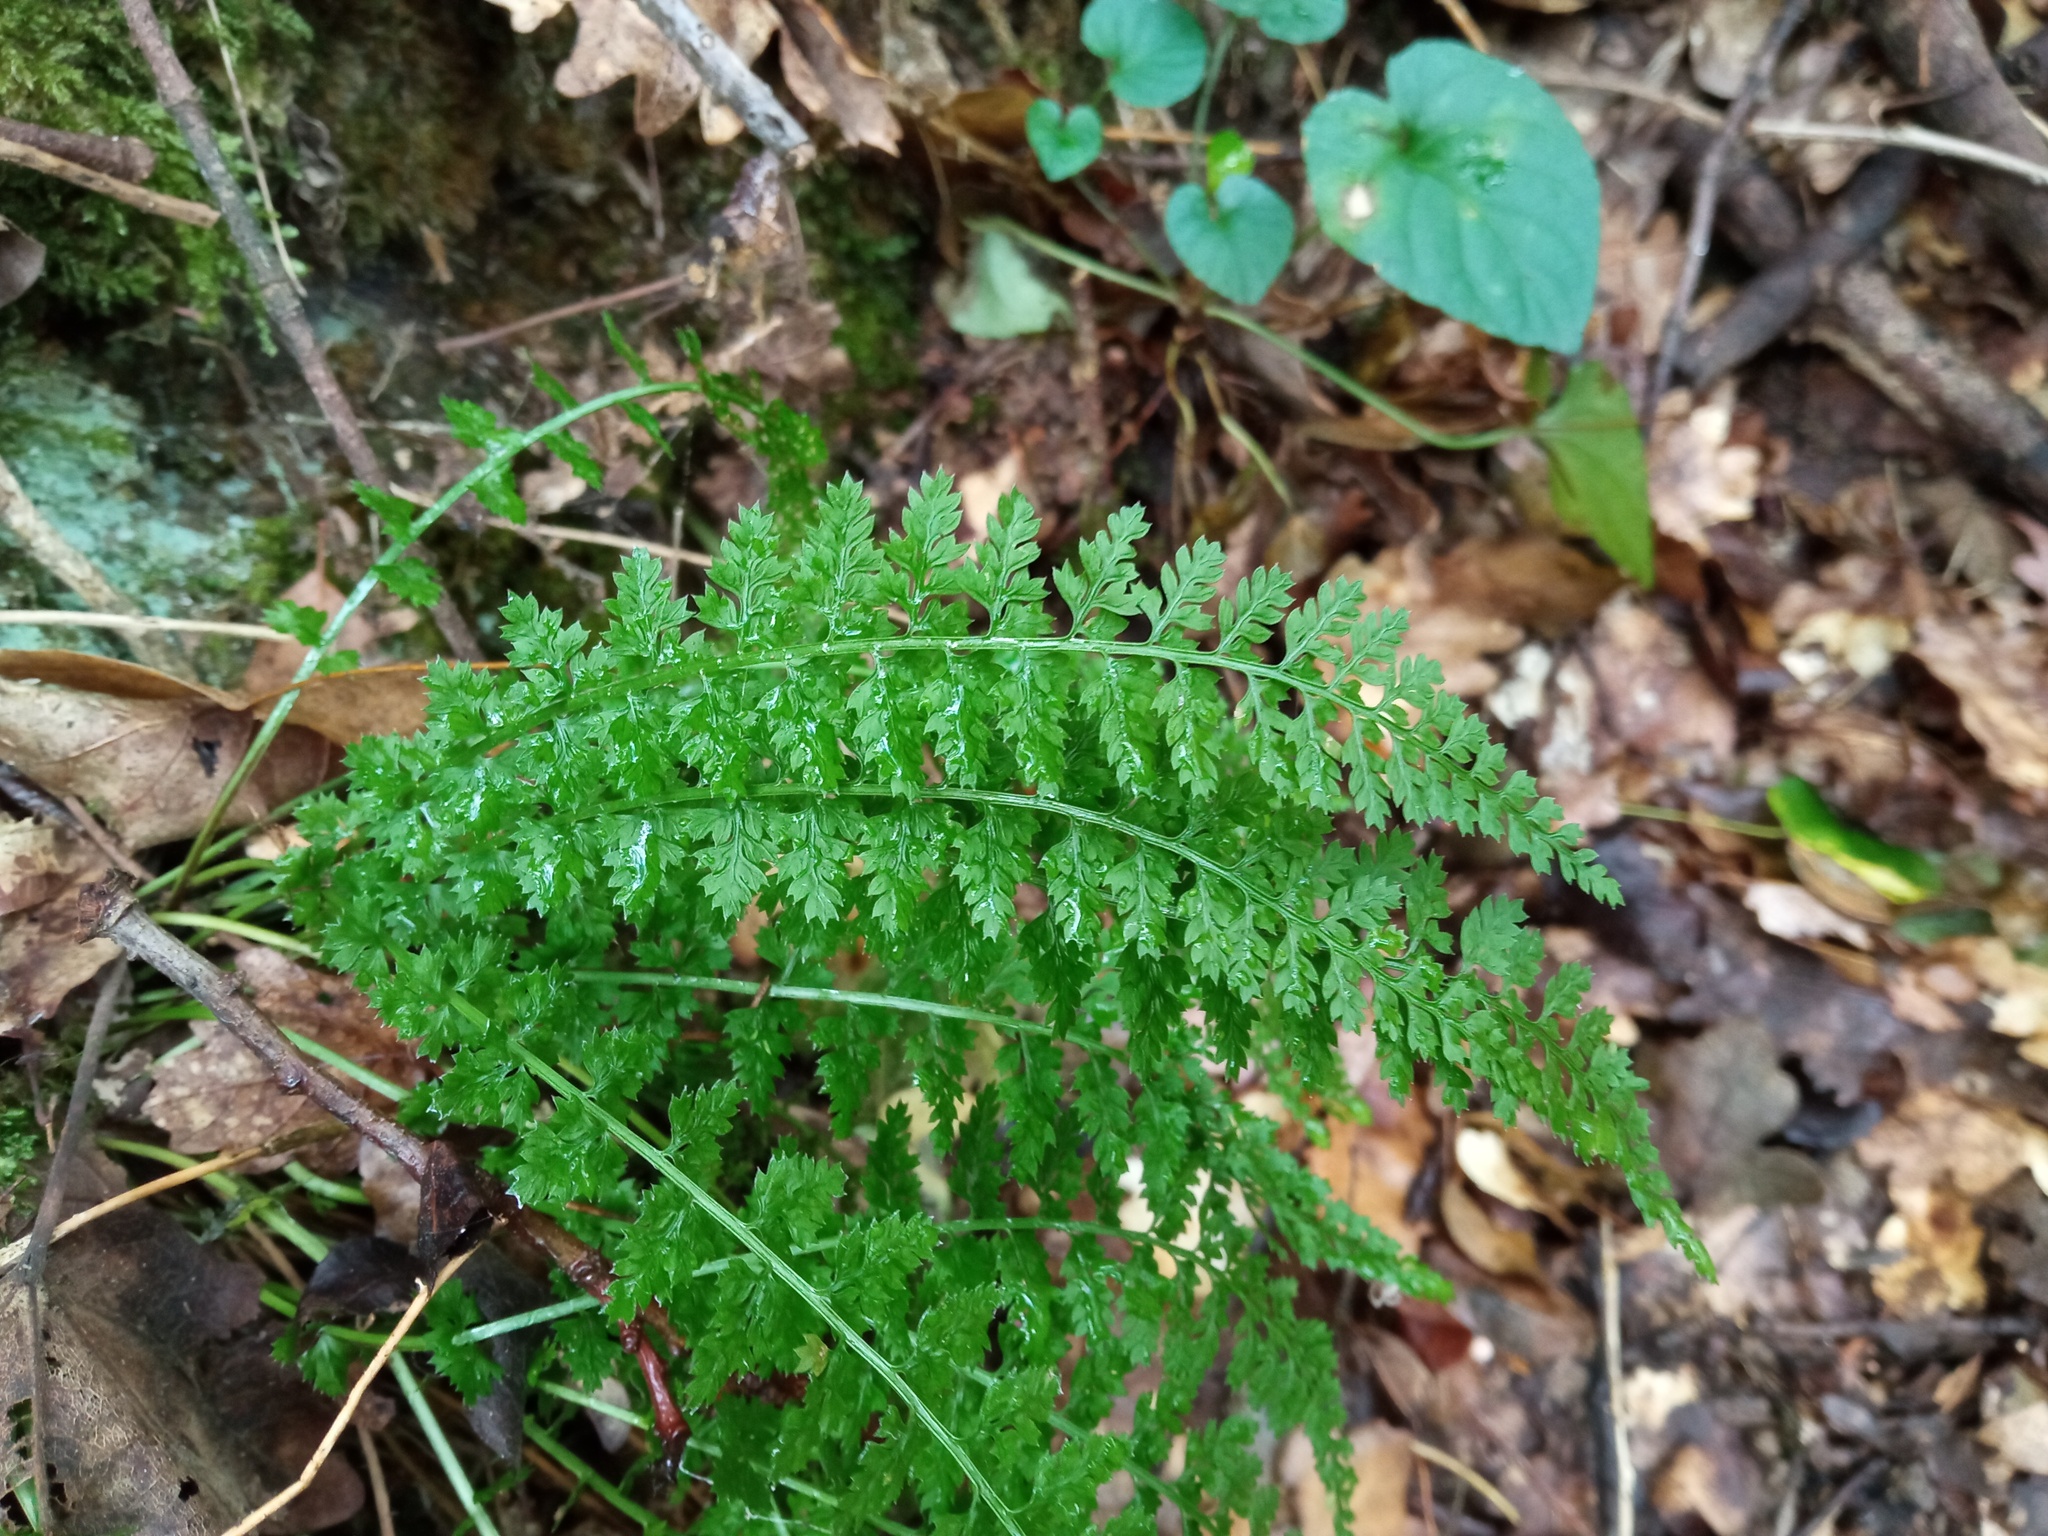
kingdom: Plantae
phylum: Tracheophyta
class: Polypodiopsida
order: Polypodiales
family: Aspleniaceae
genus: Asplenium
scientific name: Asplenium fontanum
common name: Fountain spleenwort
